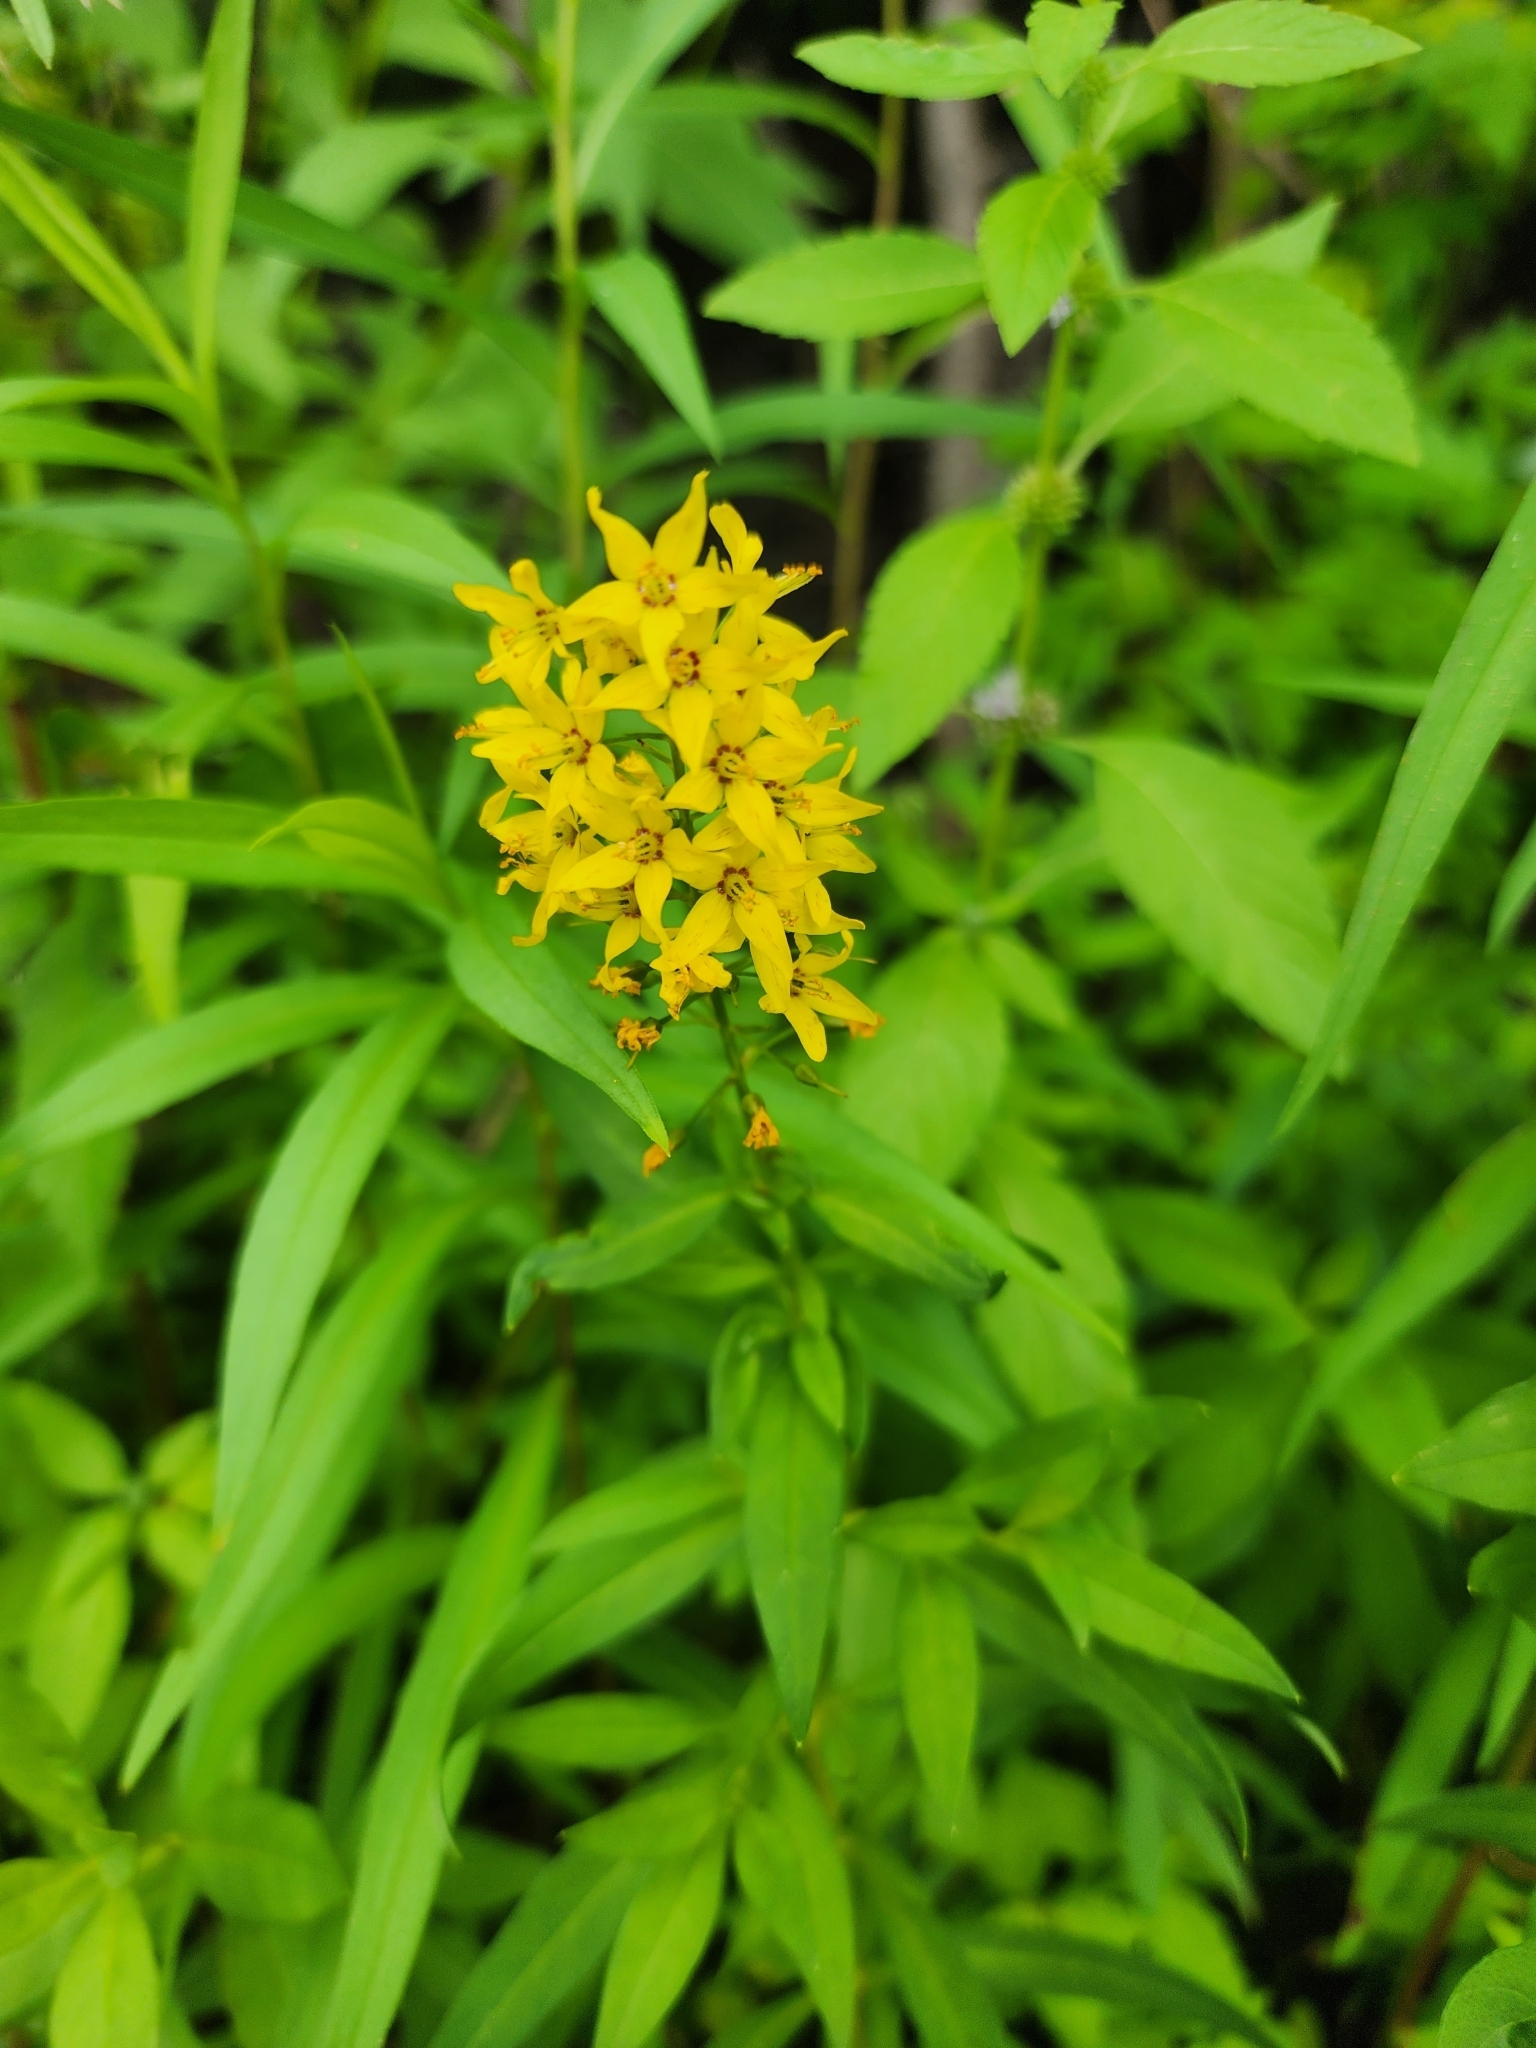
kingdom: Plantae
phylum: Tracheophyta
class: Magnoliopsida
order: Ericales
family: Primulaceae
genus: Lysimachia
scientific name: Lysimachia terrestris
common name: Lake loosestrife
